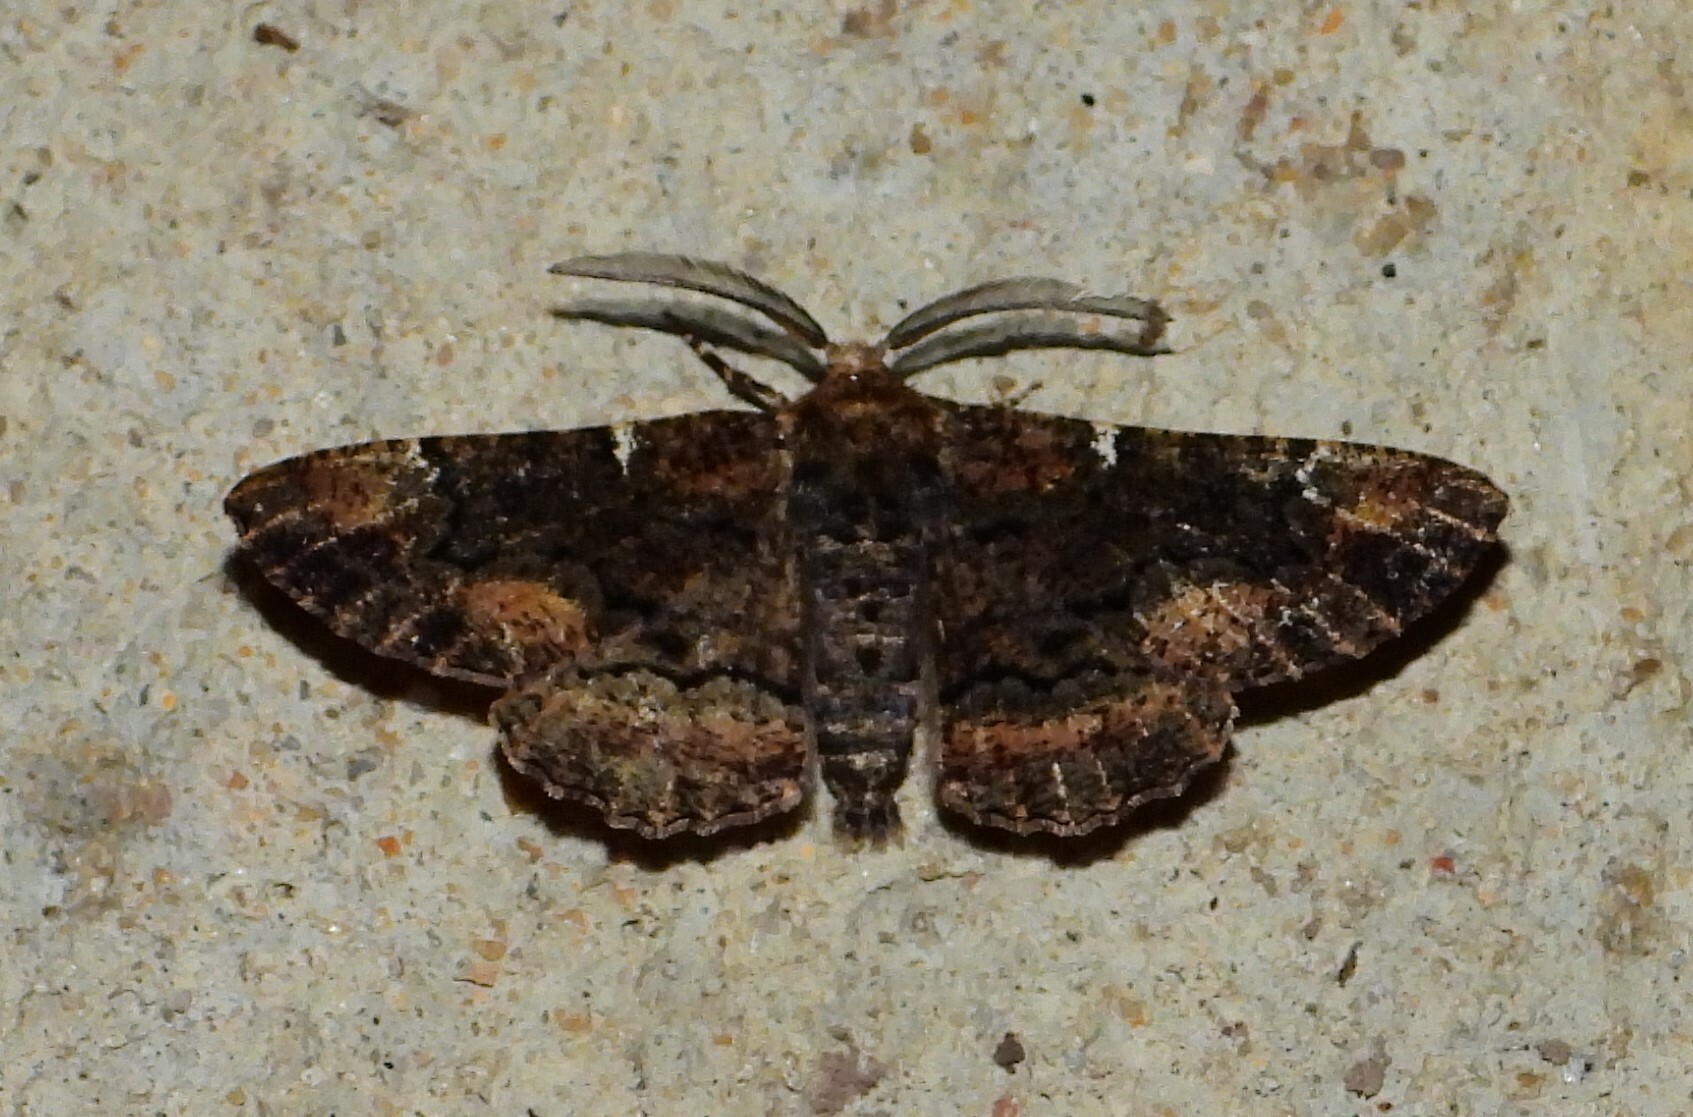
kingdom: Animalia
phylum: Arthropoda
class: Insecta
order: Lepidoptera
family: Geometridae
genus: Phaeoura
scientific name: Phaeoura quernaria
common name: Oak beauty
